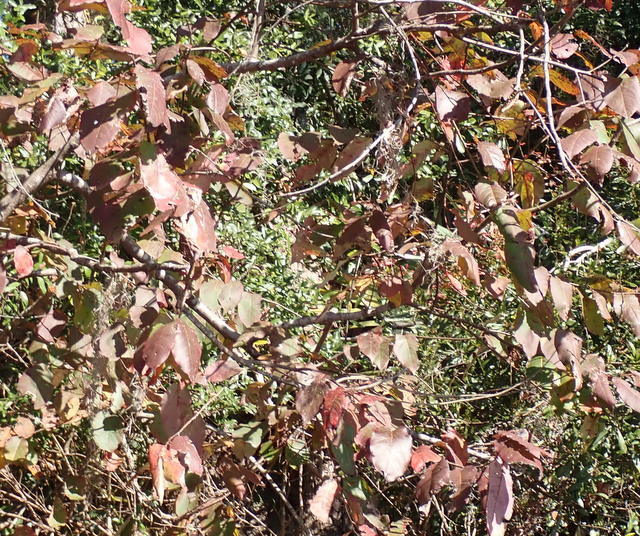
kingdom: Plantae
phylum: Tracheophyta
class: Magnoliopsida
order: Ericales
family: Ebenaceae
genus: Diospyros
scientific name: Diospyros virginiana
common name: Persimmon
